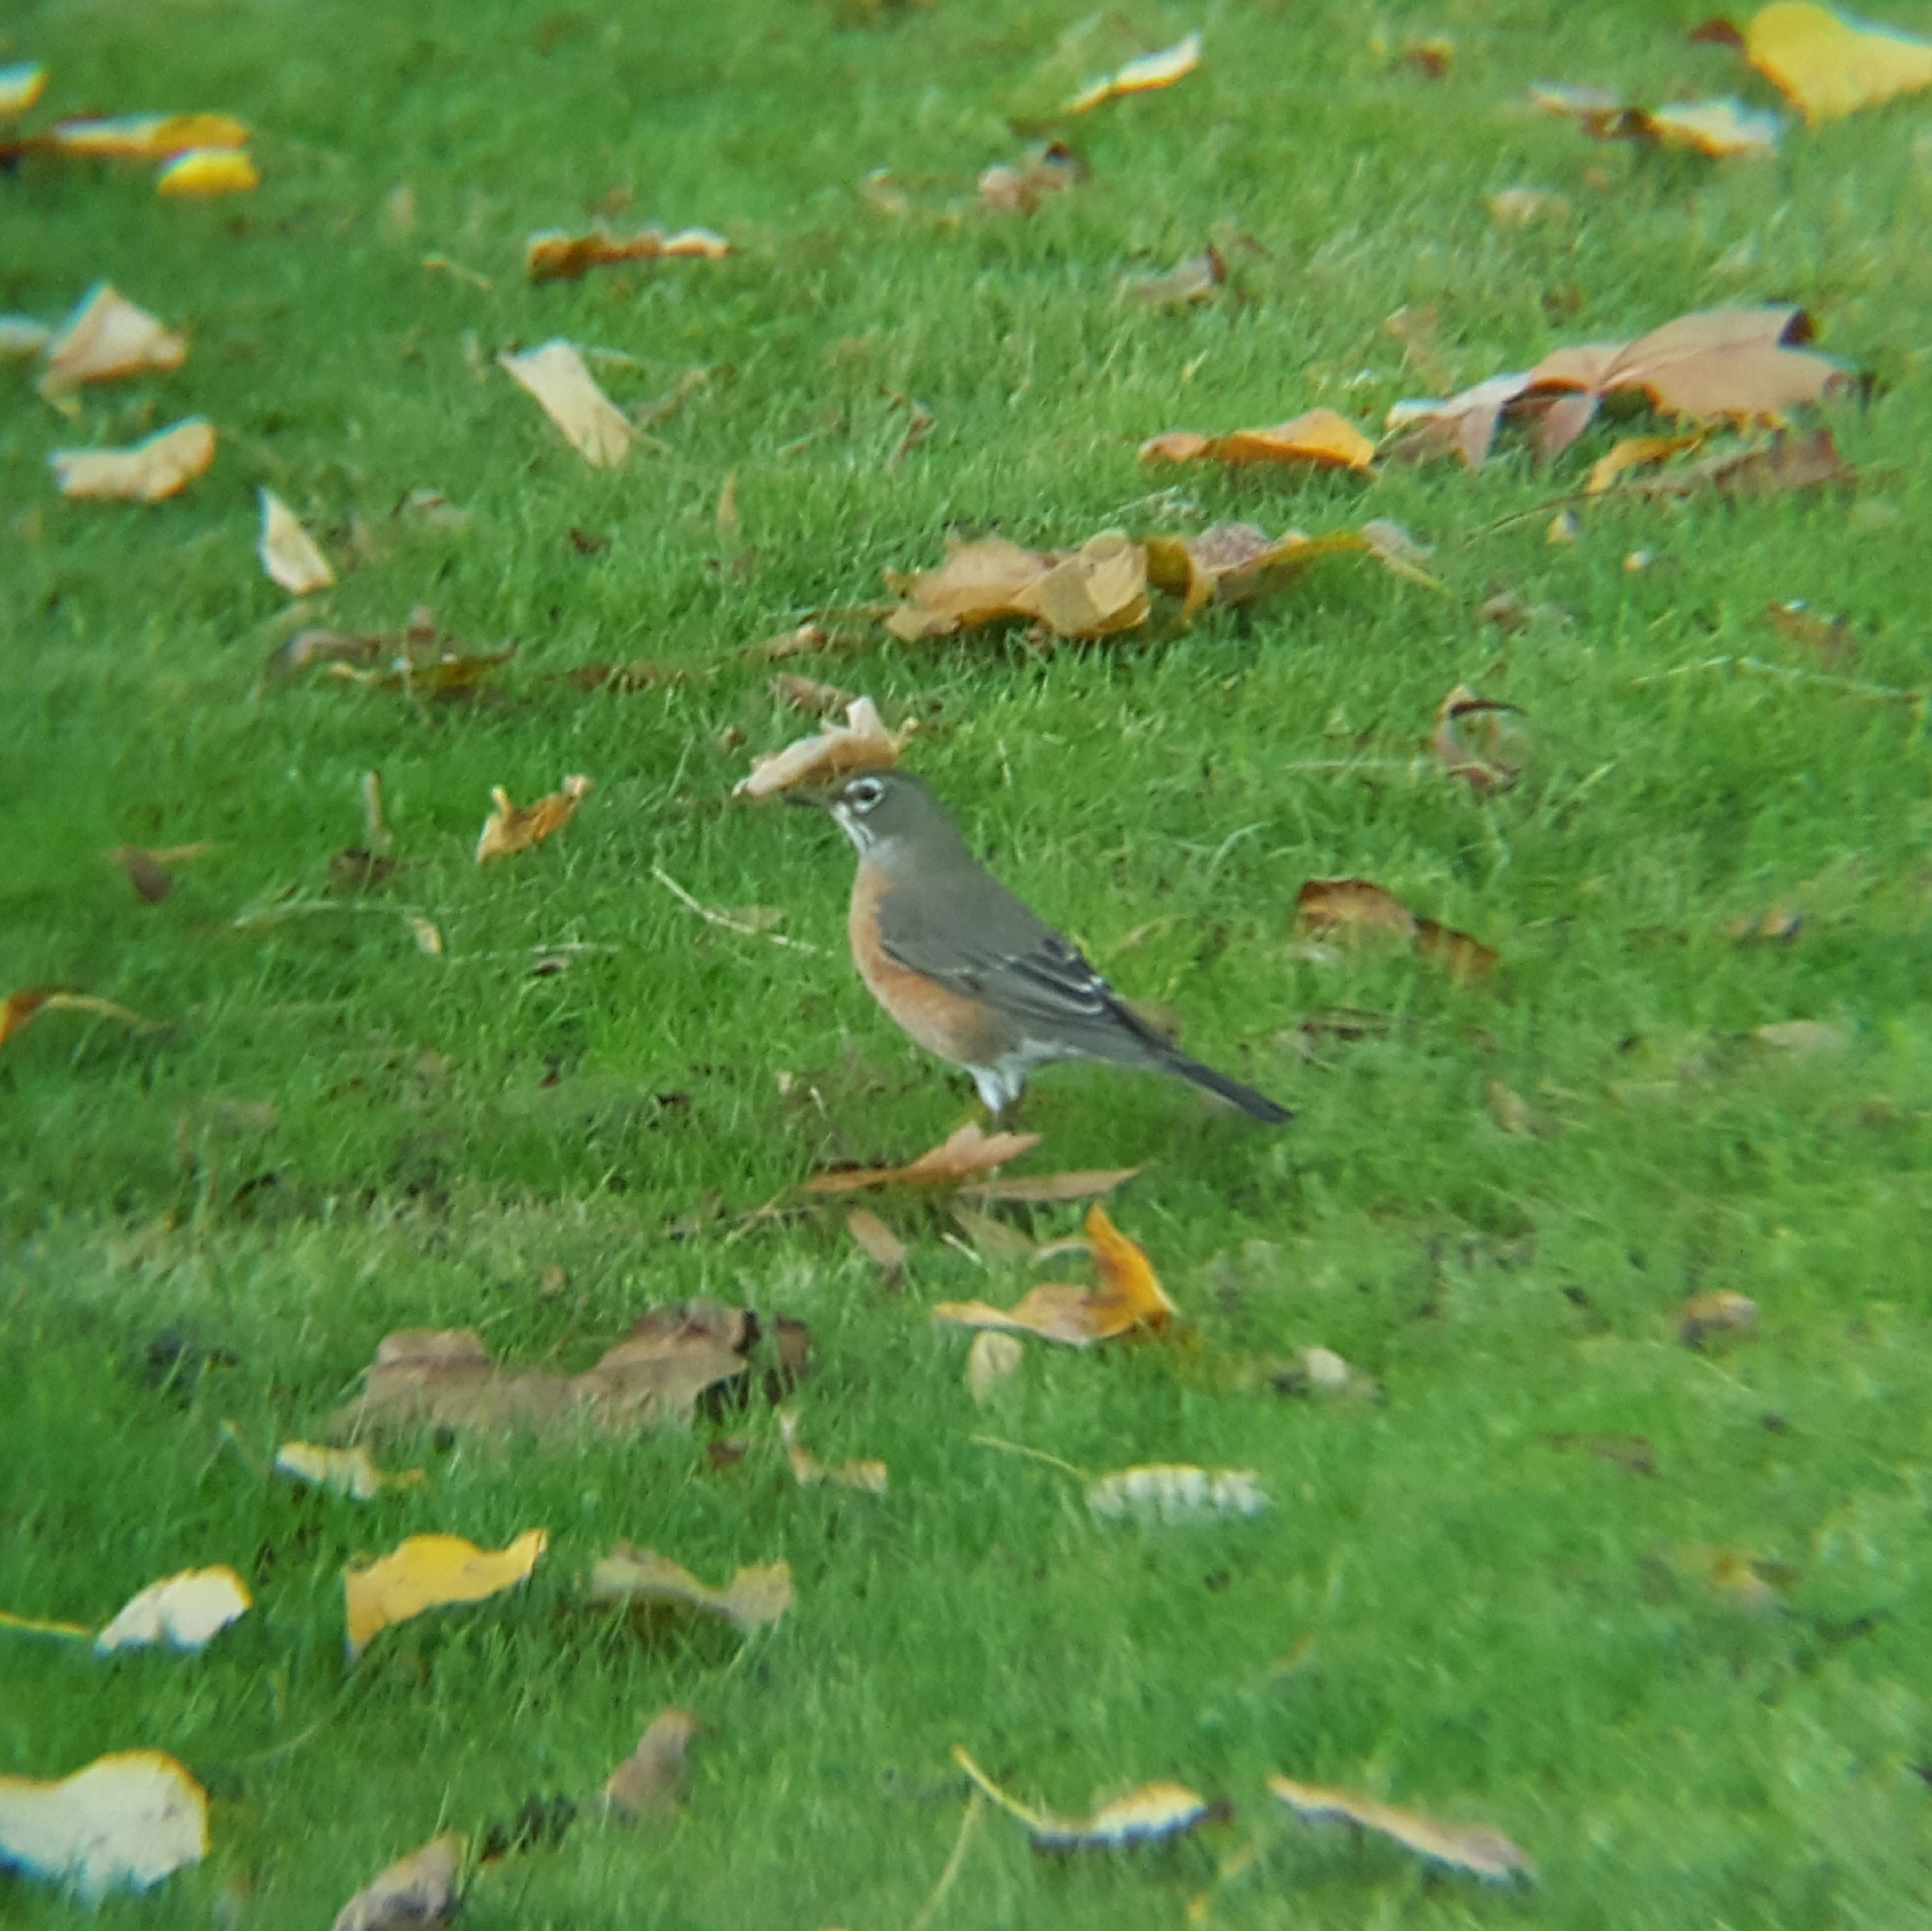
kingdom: Animalia
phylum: Chordata
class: Aves
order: Passeriformes
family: Turdidae
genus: Turdus
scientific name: Turdus migratorius
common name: American robin
